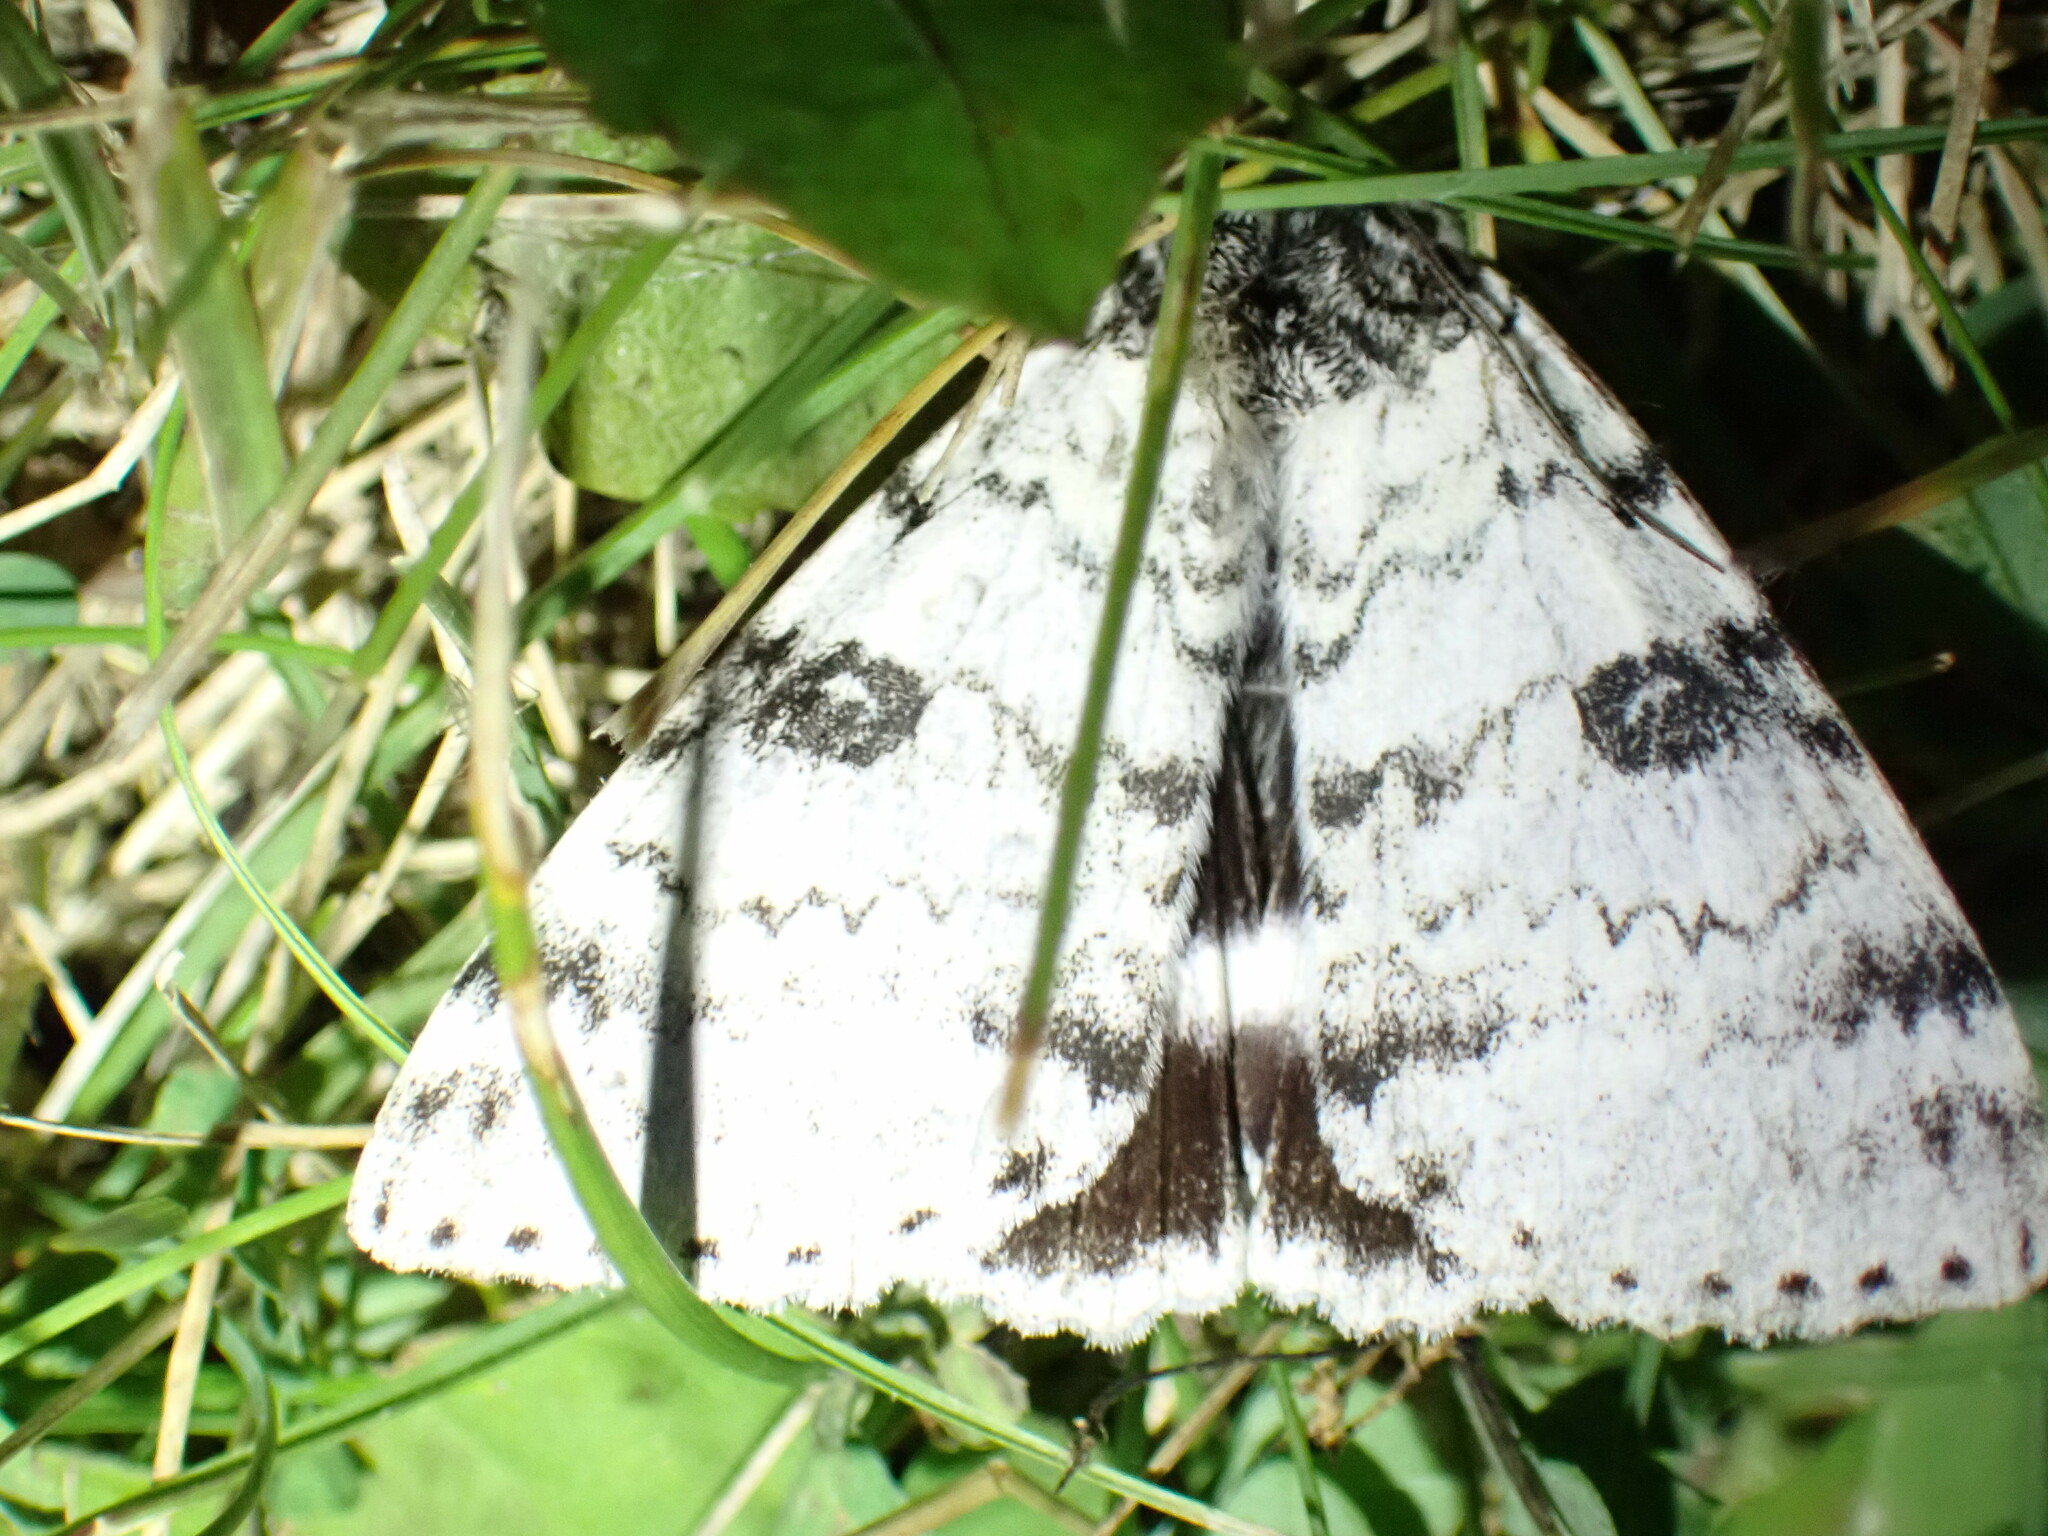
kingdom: Animalia
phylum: Arthropoda
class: Insecta
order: Lepidoptera
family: Erebidae
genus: Catocala
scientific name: Catocala relicta
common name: White underwing
